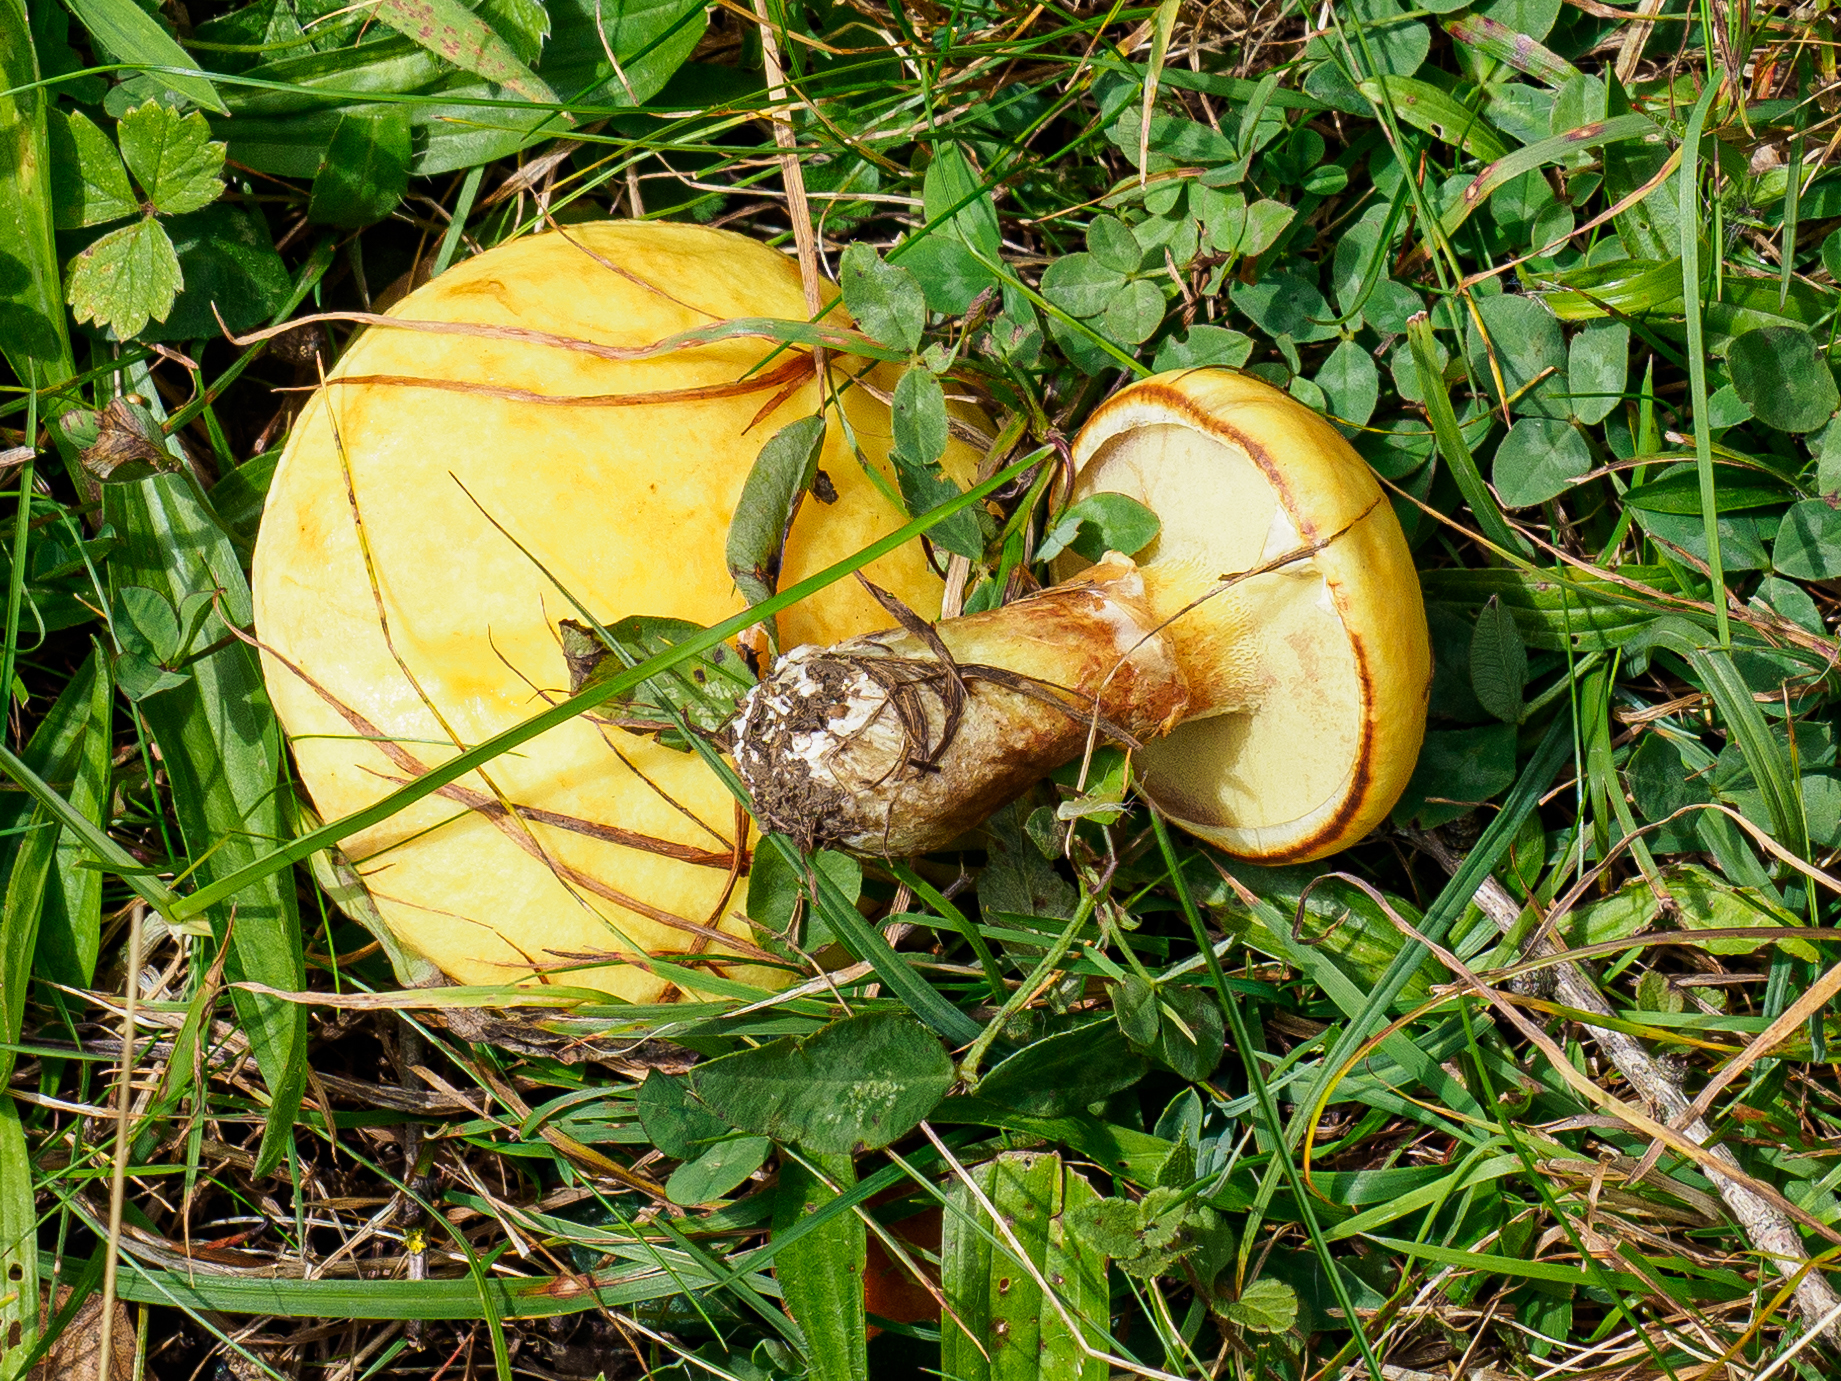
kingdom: Fungi
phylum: Basidiomycota
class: Agaricomycetes
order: Boletales
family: Suillaceae
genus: Suillus
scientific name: Suillus grevillei
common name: Larch bolete
